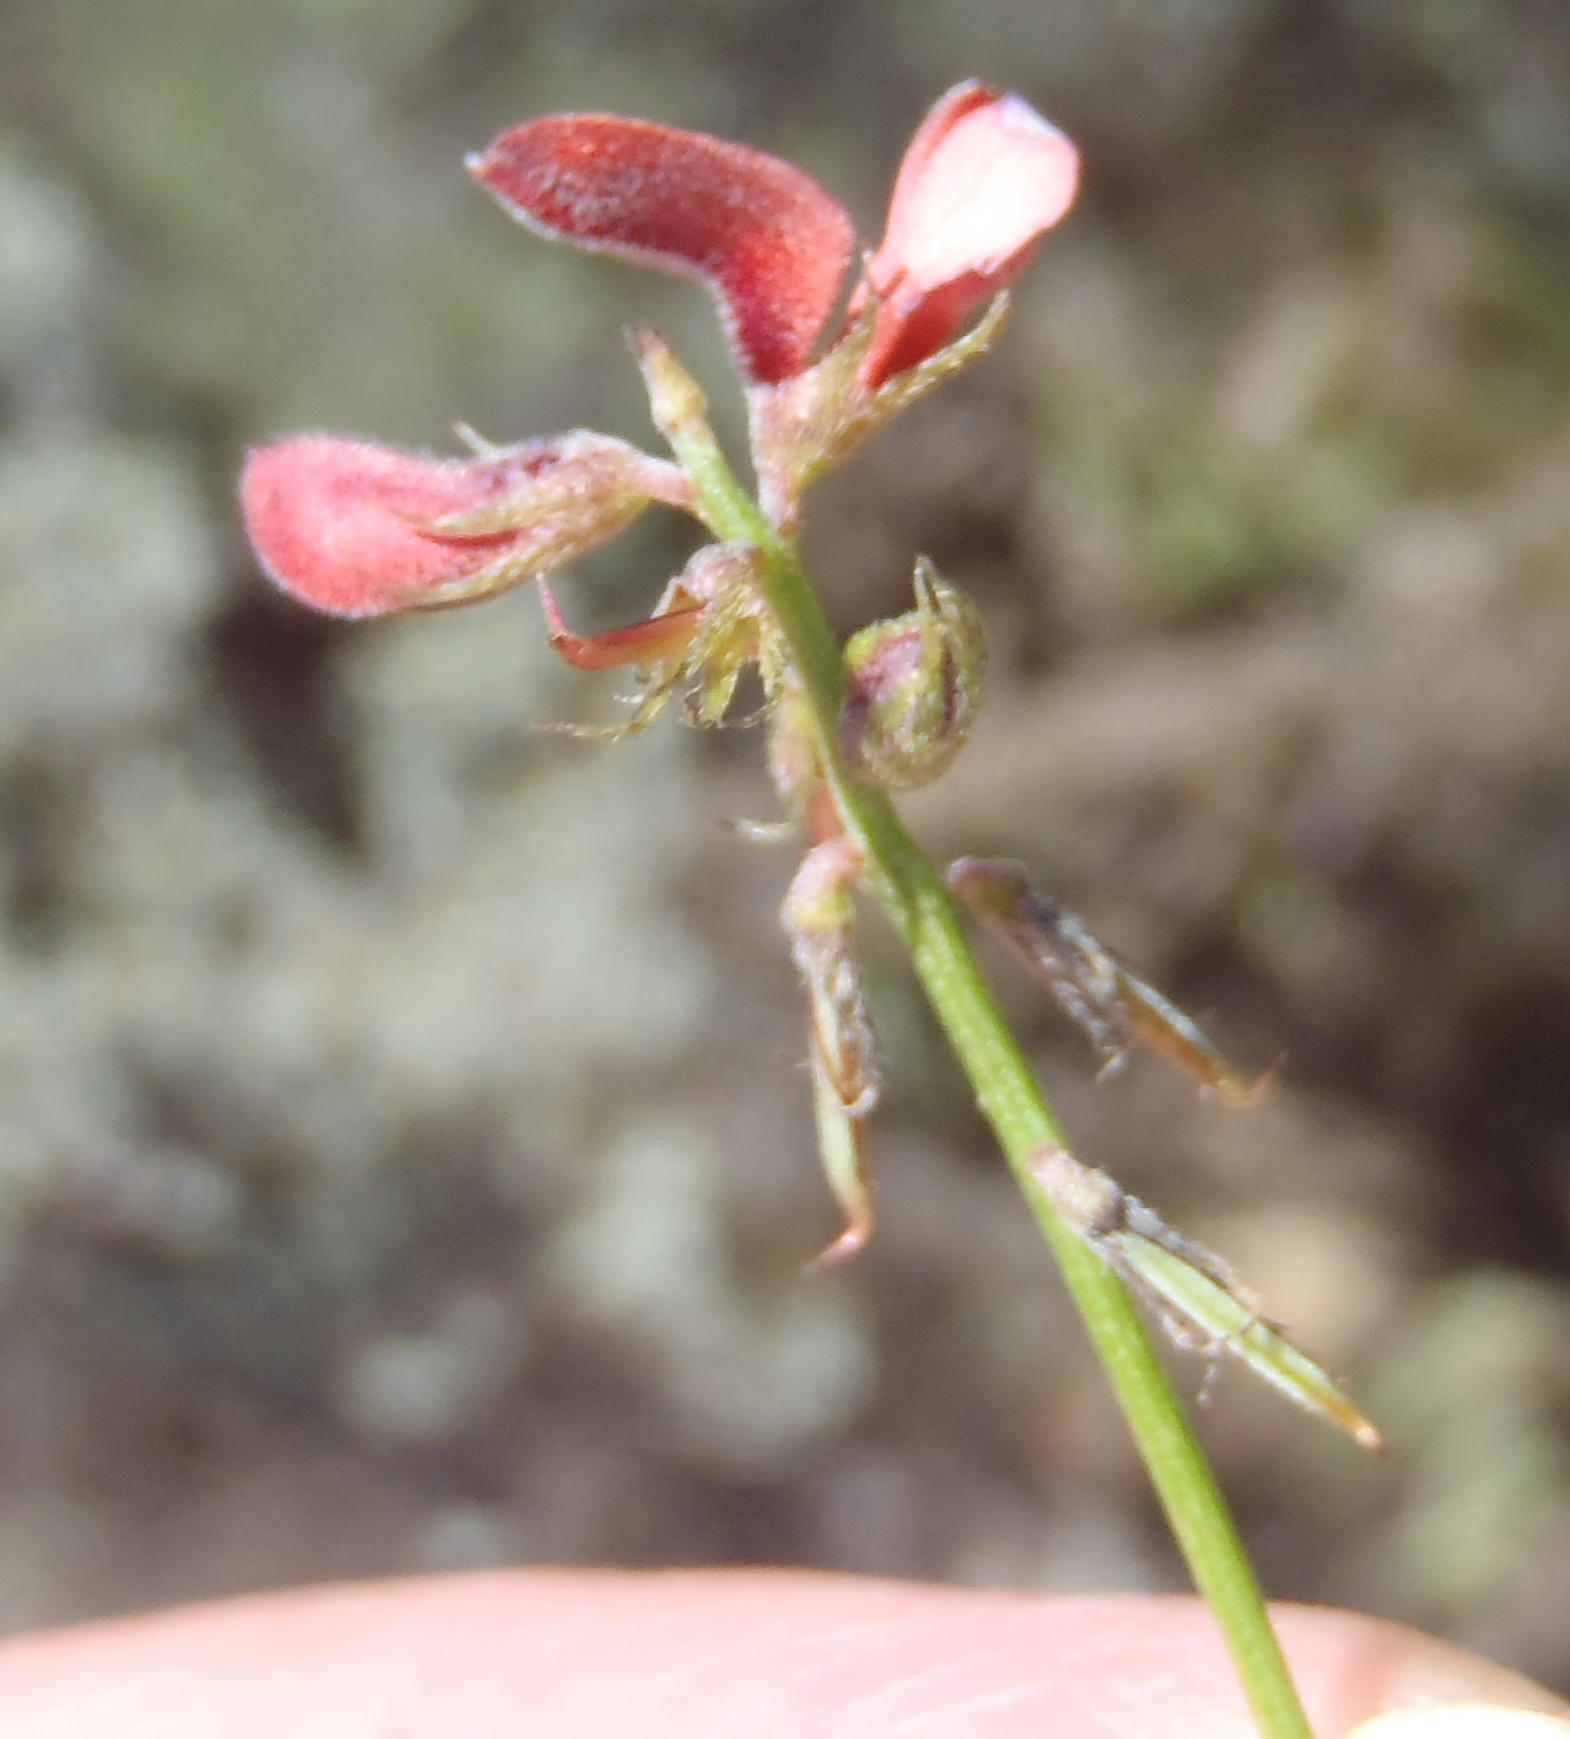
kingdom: Plantae
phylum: Tracheophyta
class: Magnoliopsida
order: Fabales
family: Fabaceae
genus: Indigofera
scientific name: Indigofera leptocarpa
